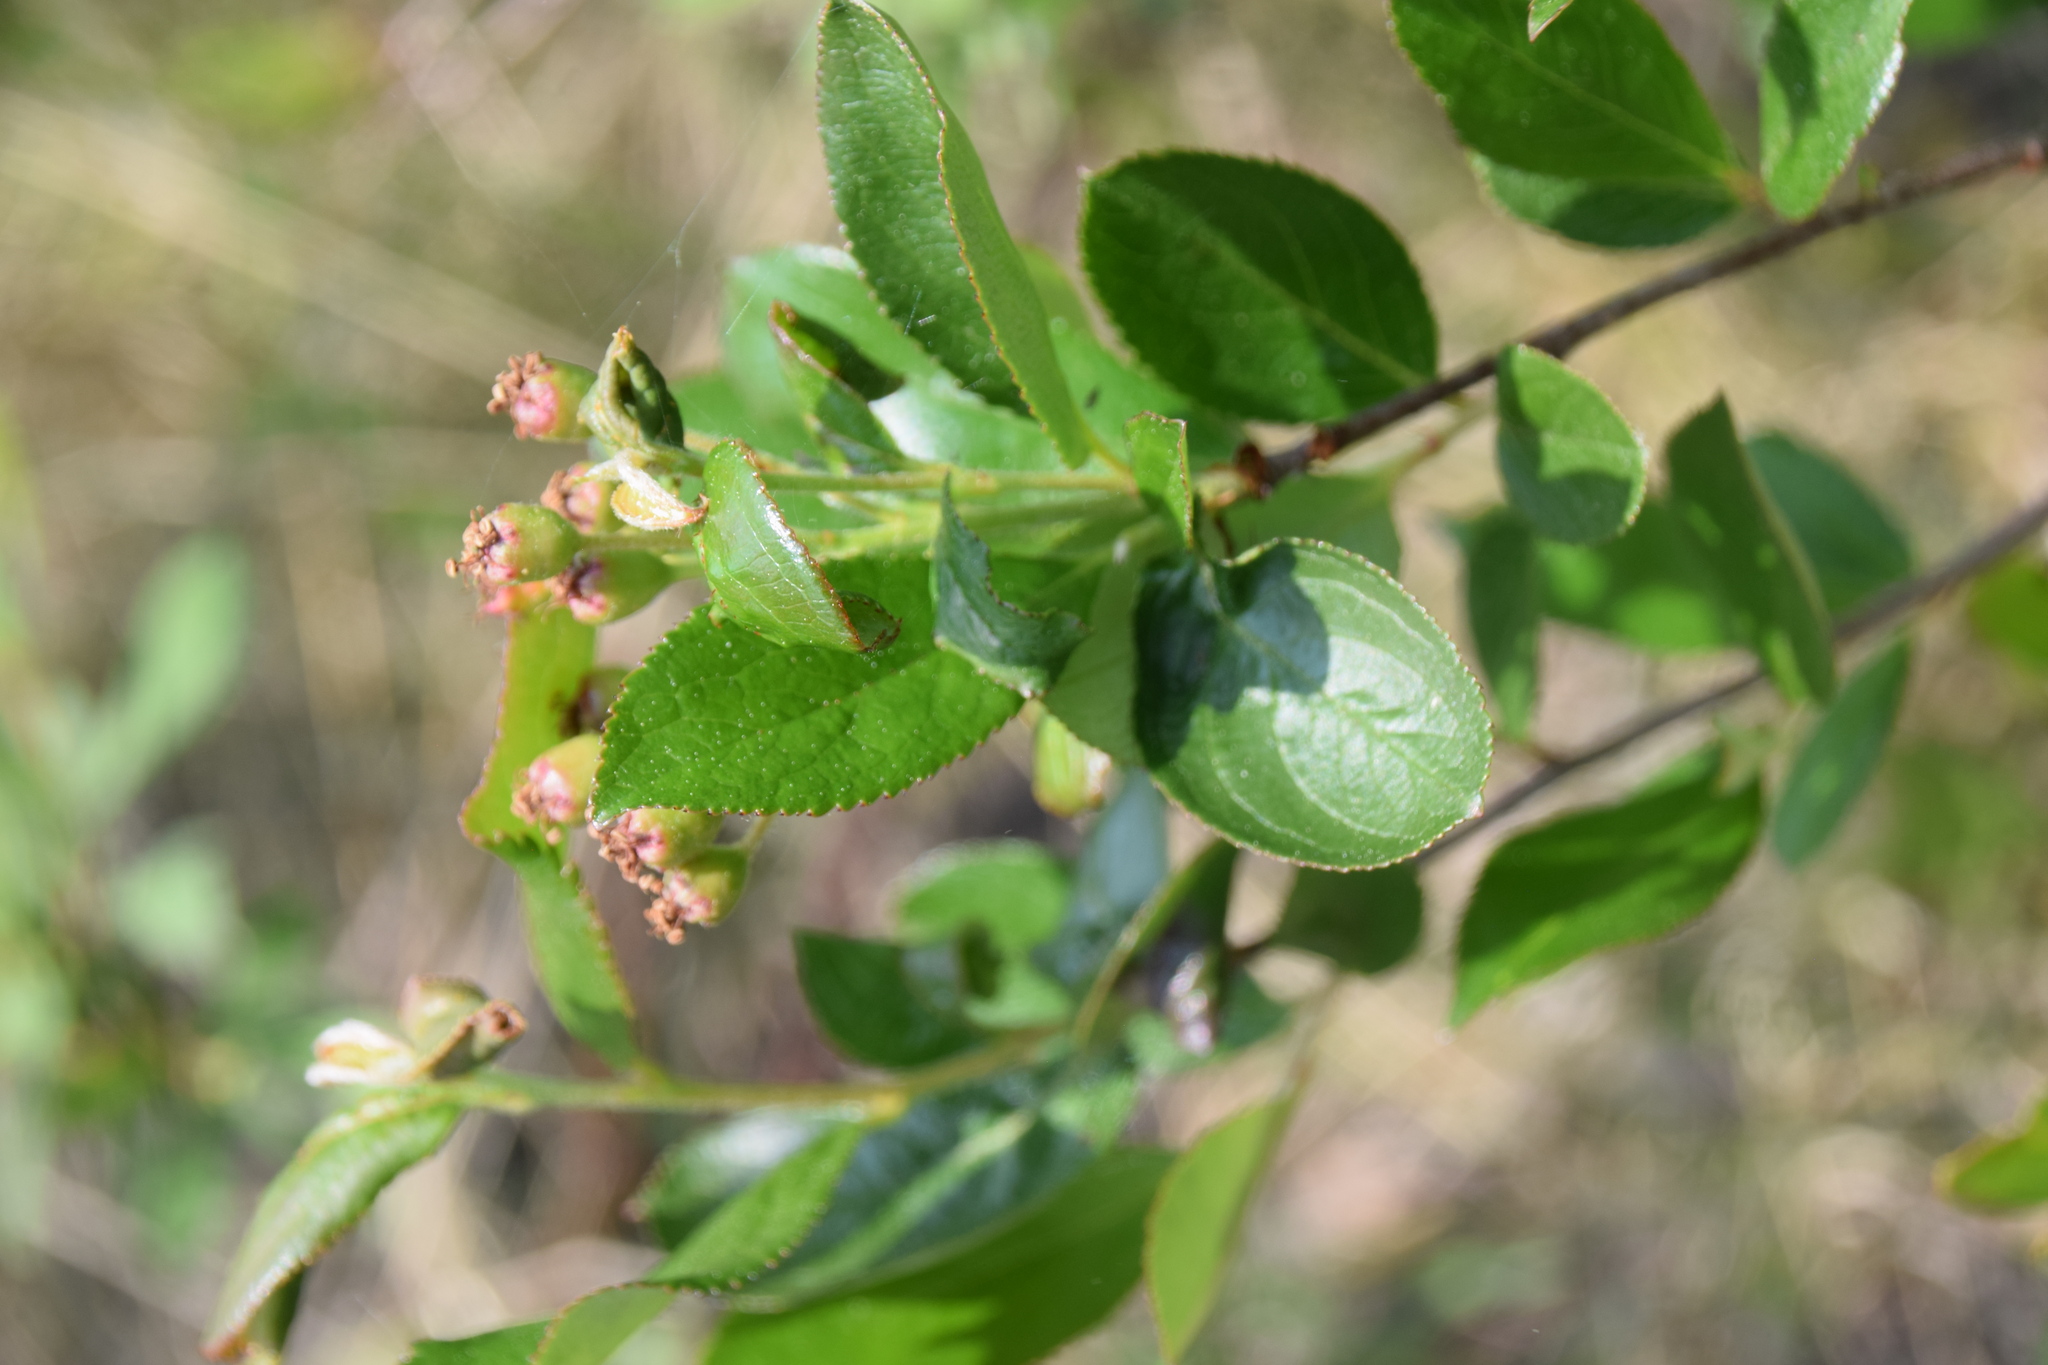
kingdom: Plantae
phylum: Tracheophyta
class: Magnoliopsida
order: Rosales
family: Rosaceae
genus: Aronia
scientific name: Aronia melanocarpa
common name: Black chokeberry
